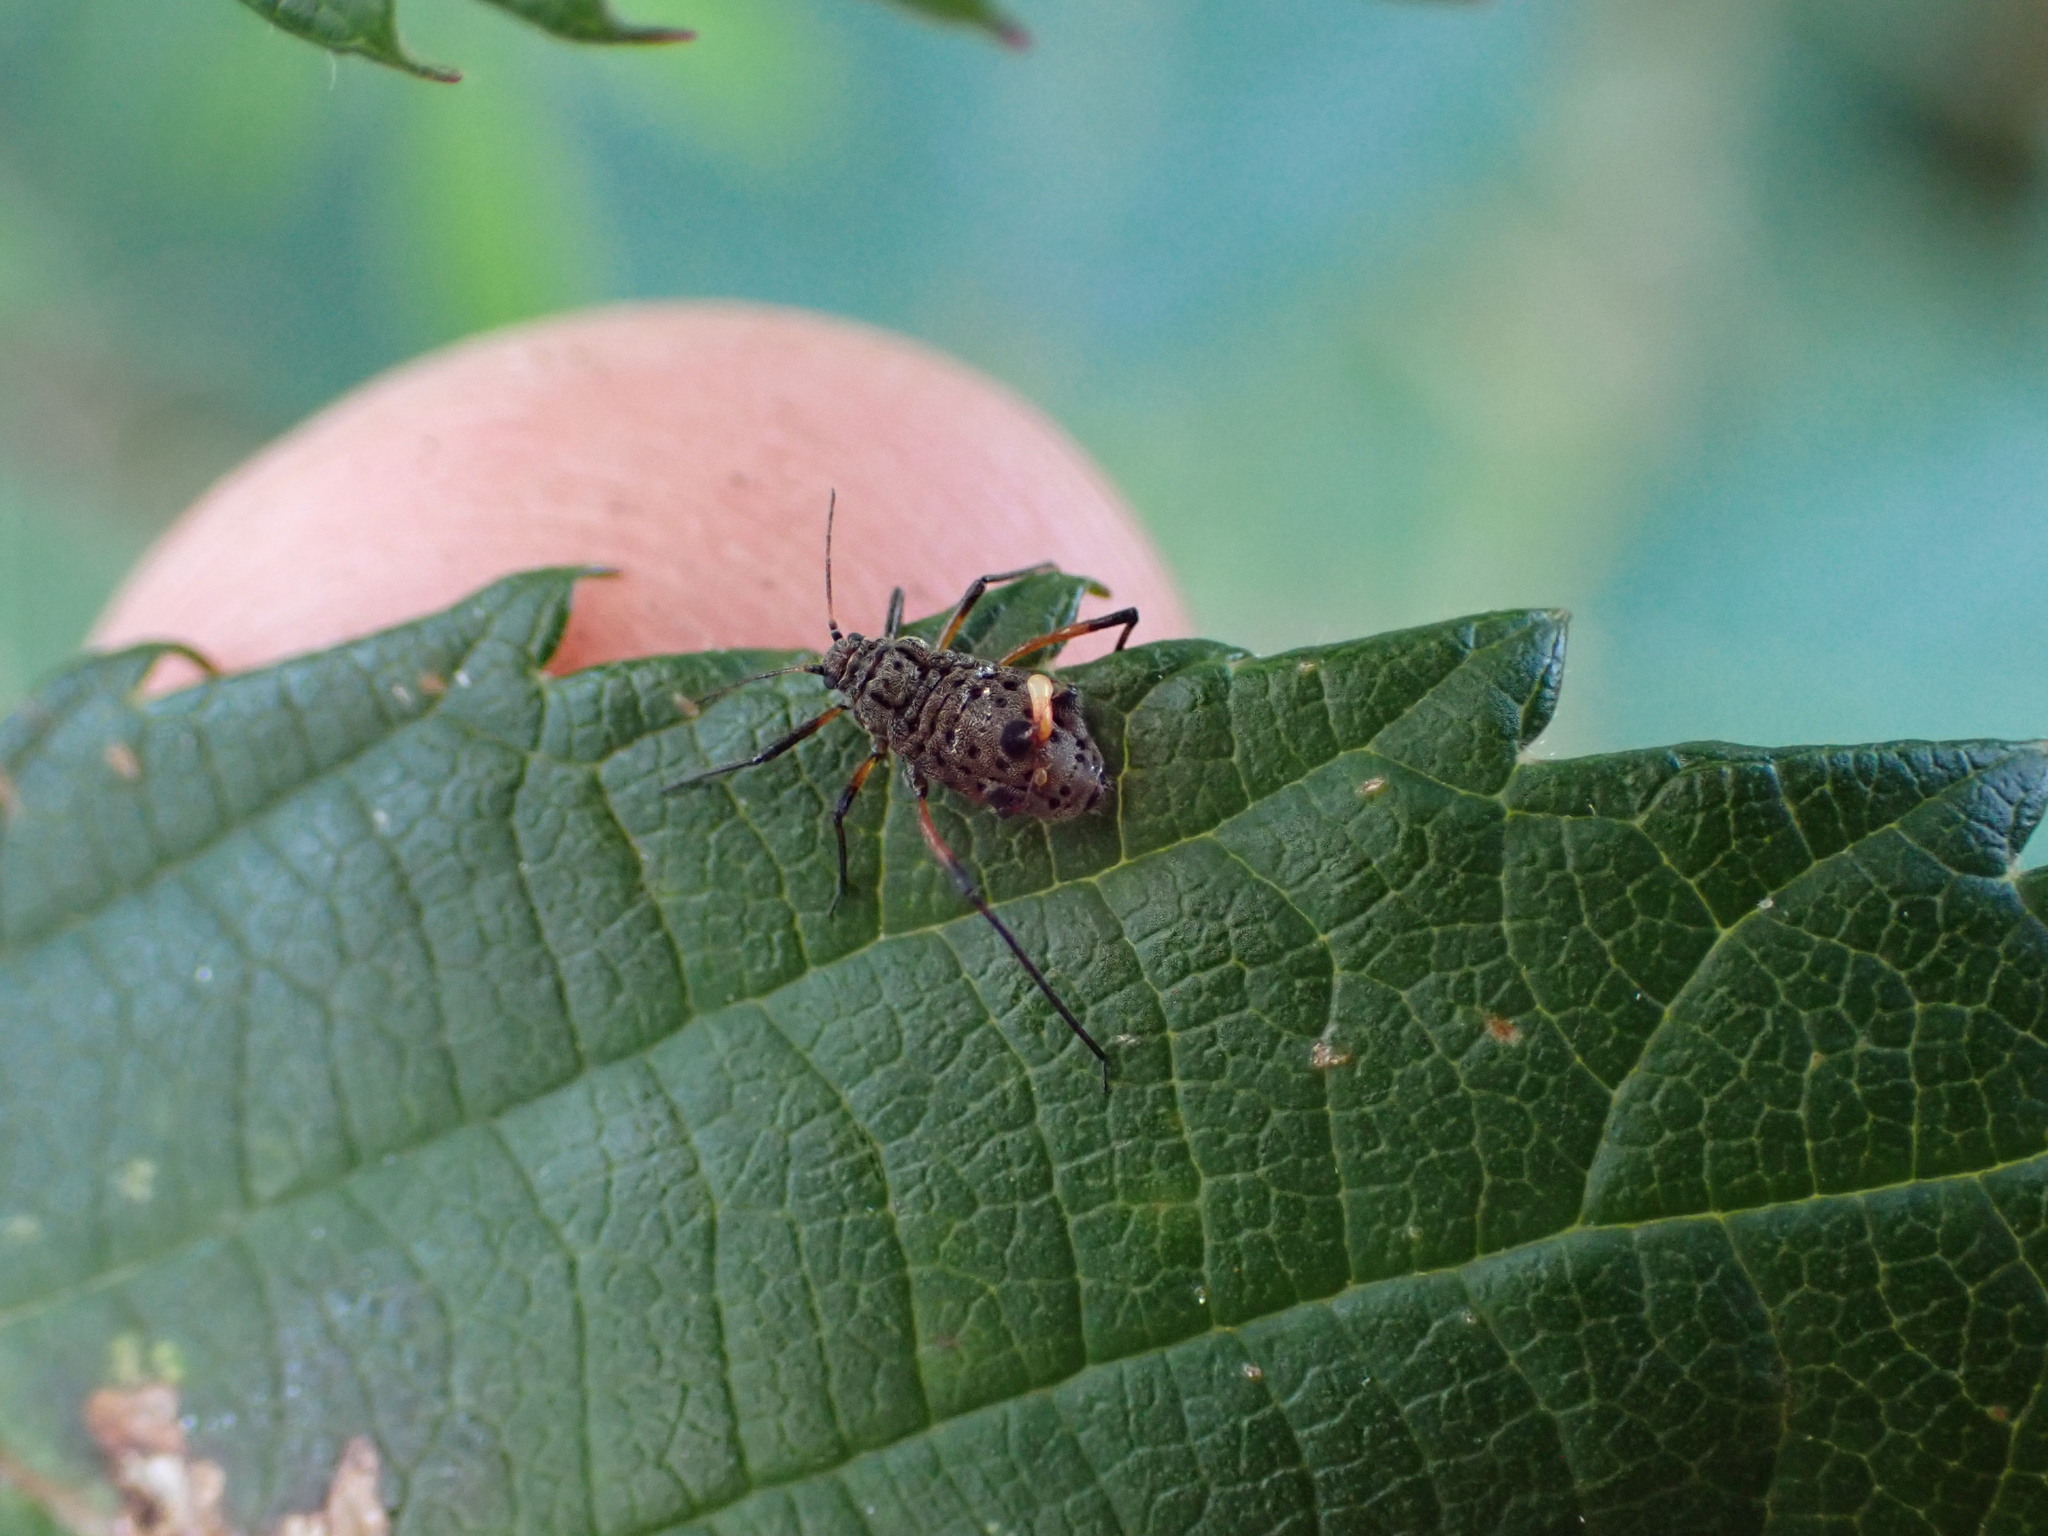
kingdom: Animalia
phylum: Arthropoda
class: Insecta
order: Hemiptera
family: Aphididae
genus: Tuberolachnus
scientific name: Tuberolachnus salignus
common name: Giant willow aphid
